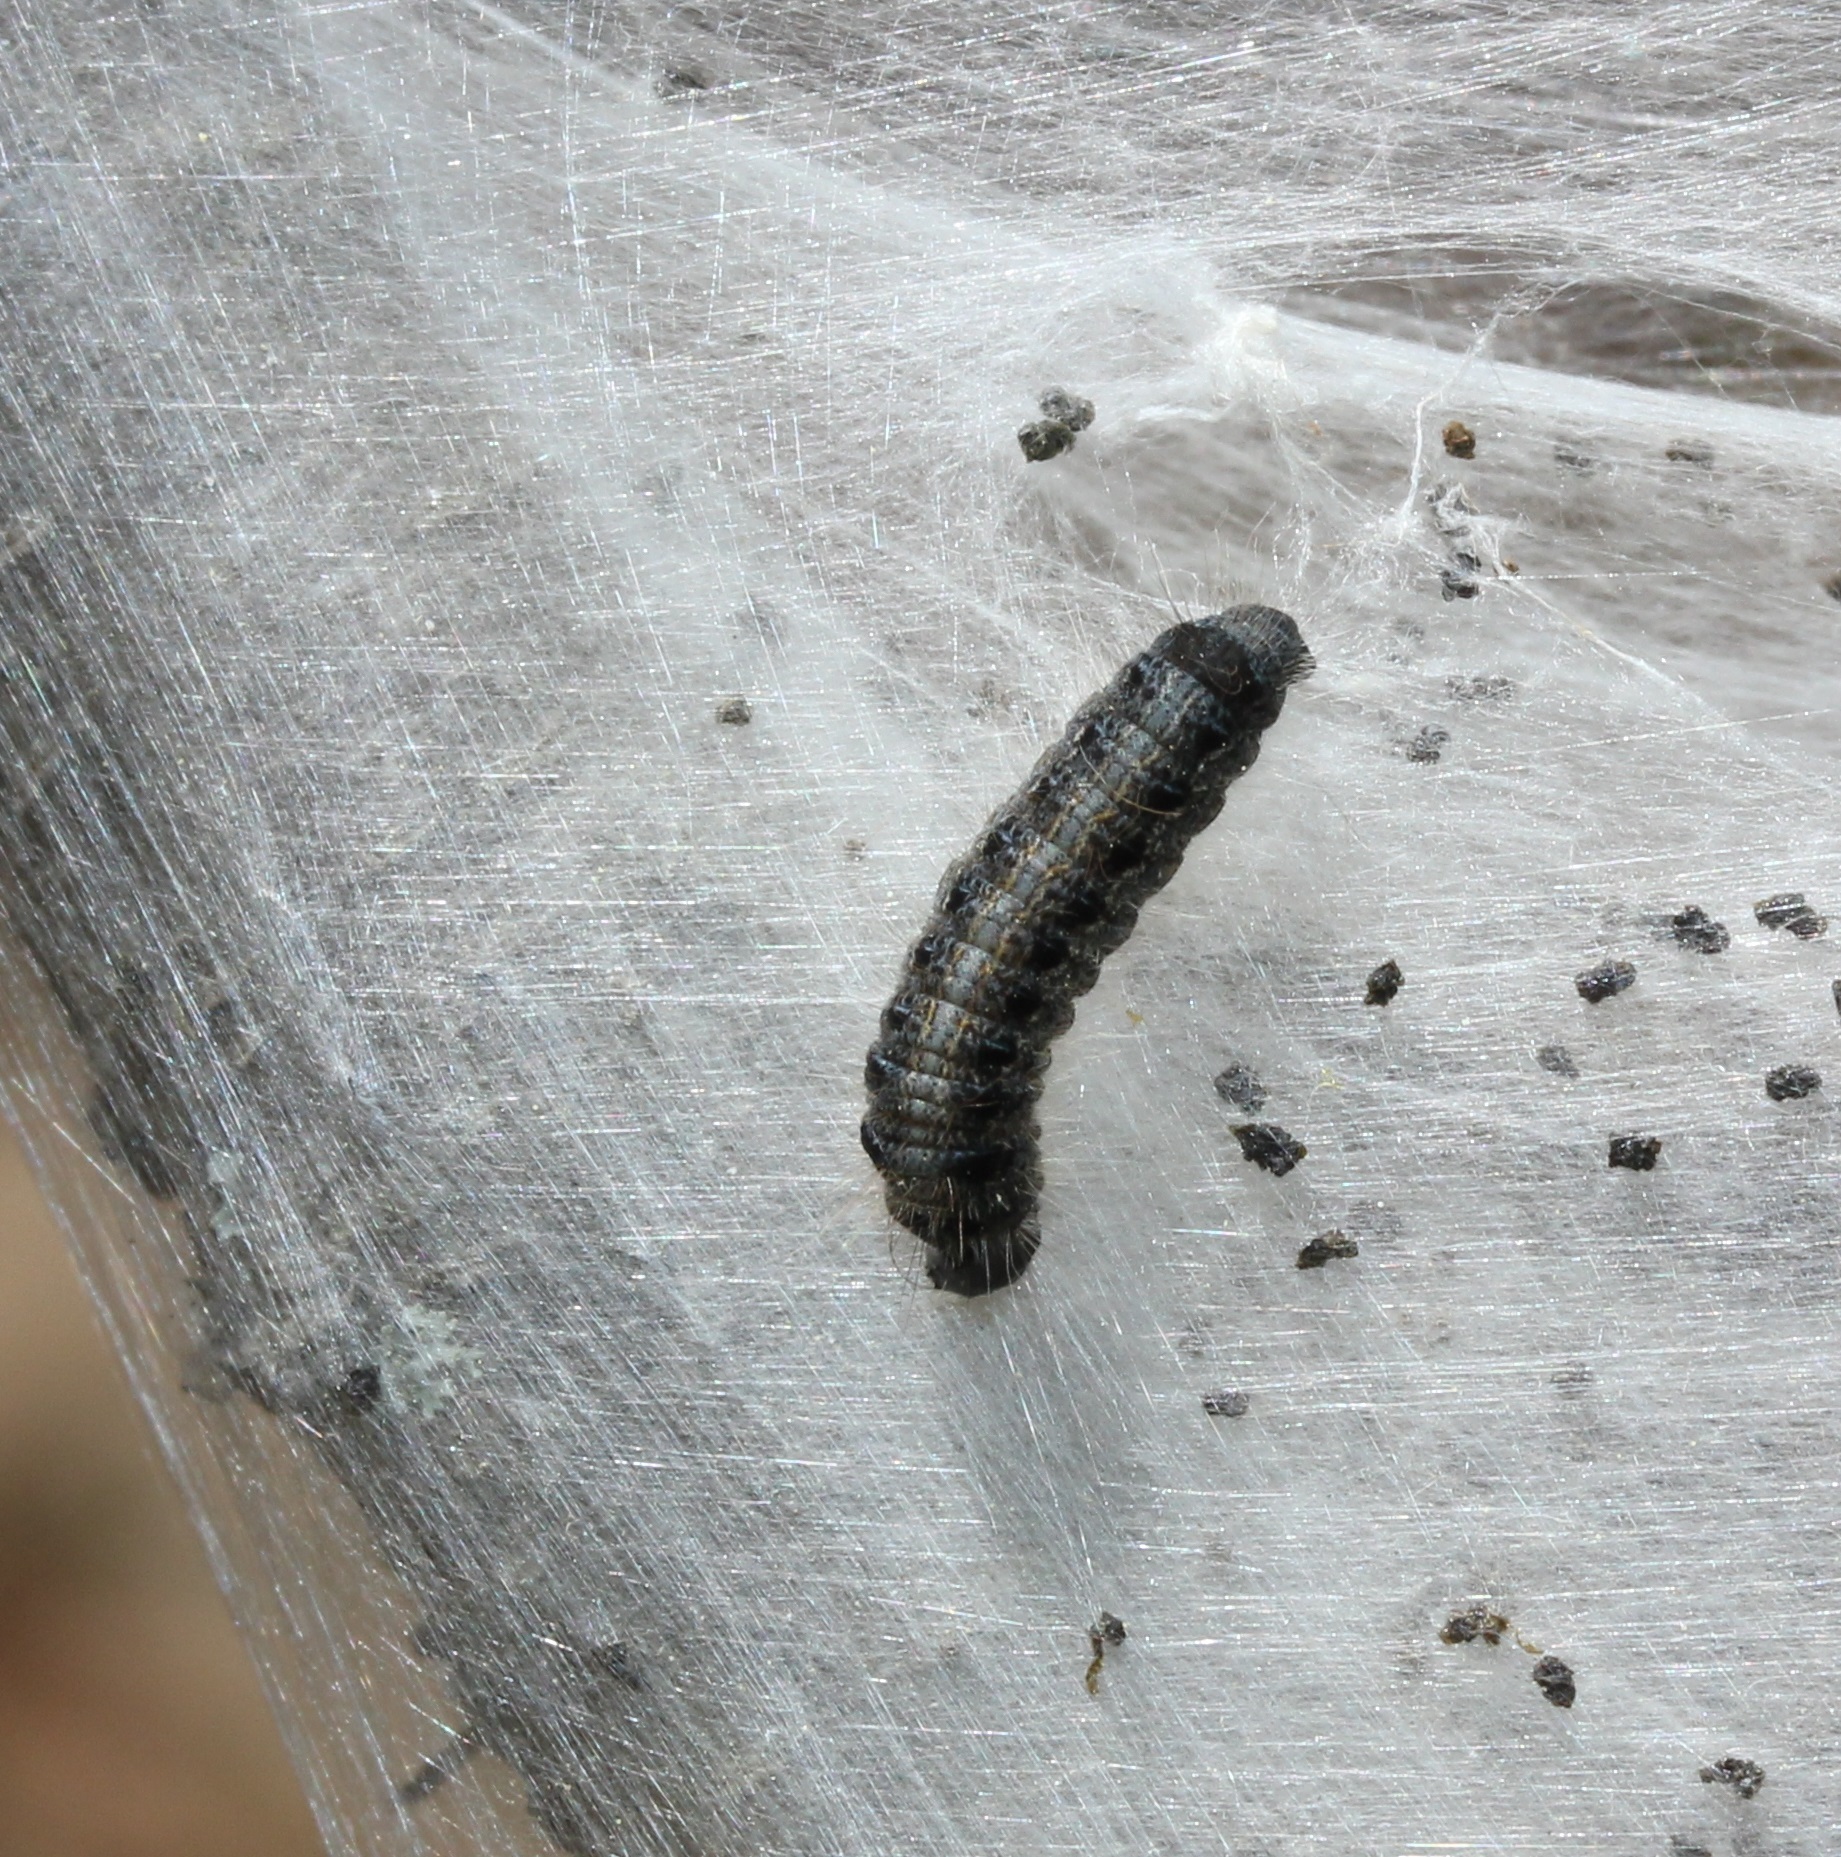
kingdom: Animalia
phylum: Arthropoda
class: Insecta
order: Lepidoptera
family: Lasiocampidae
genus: Malacosoma
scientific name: Malacosoma americana
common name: Eastern tent caterpillar moth
